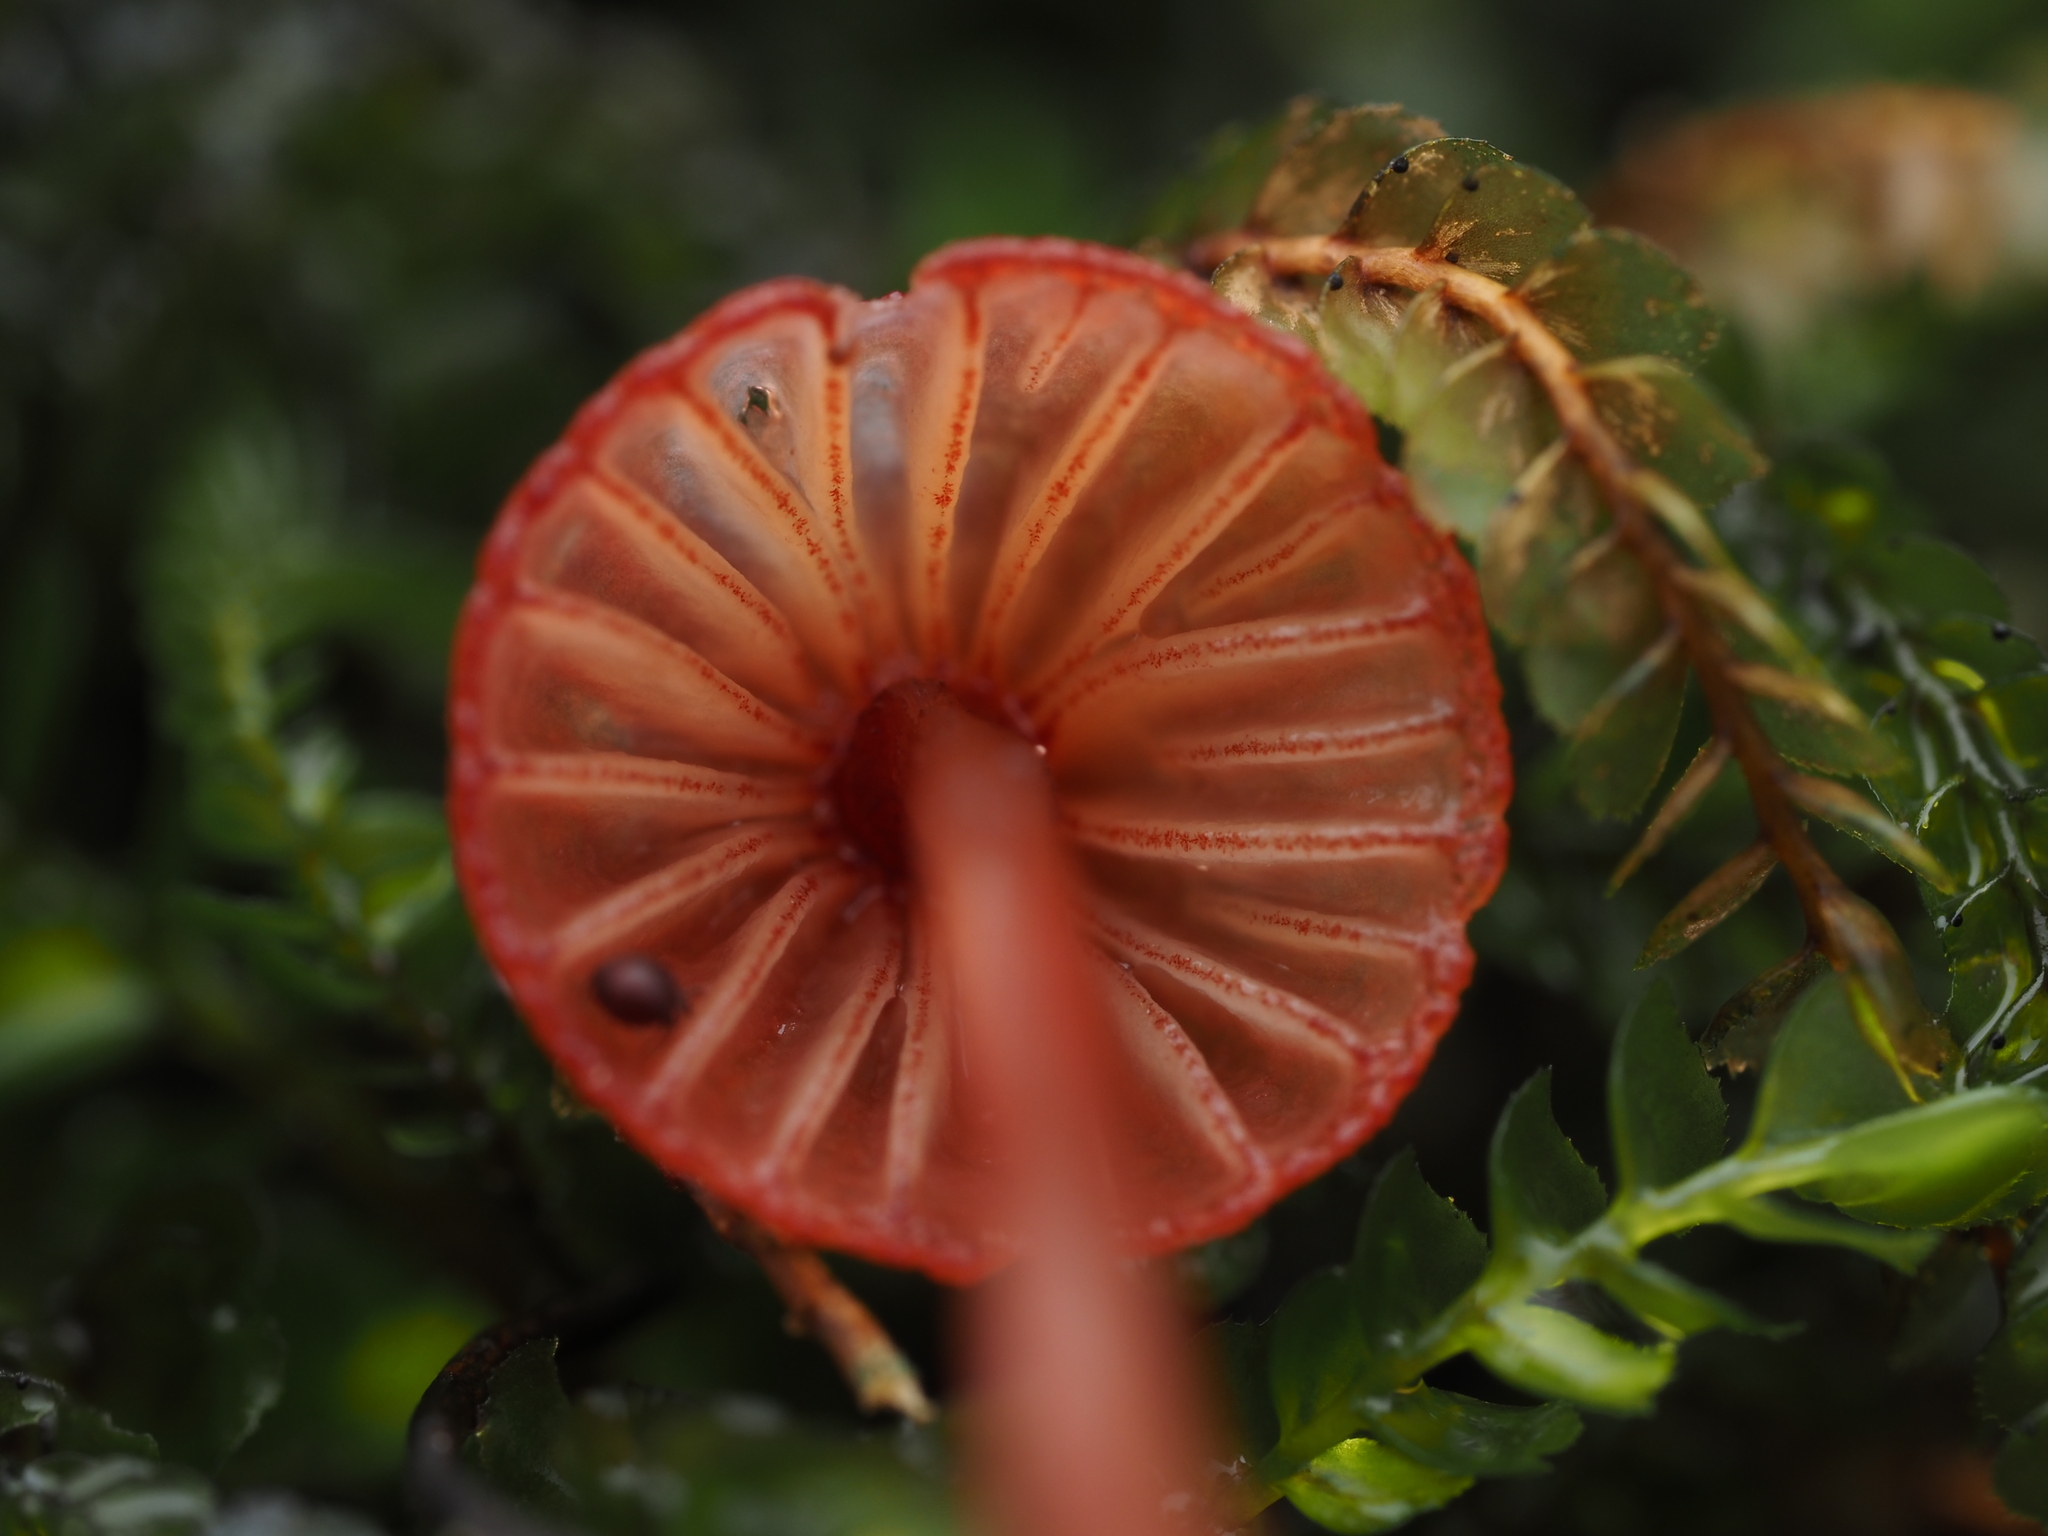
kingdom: Fungi
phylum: Basidiomycota
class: Agaricomycetes
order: Agaricales
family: Mycenaceae
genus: Mycena
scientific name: Mycena ura
